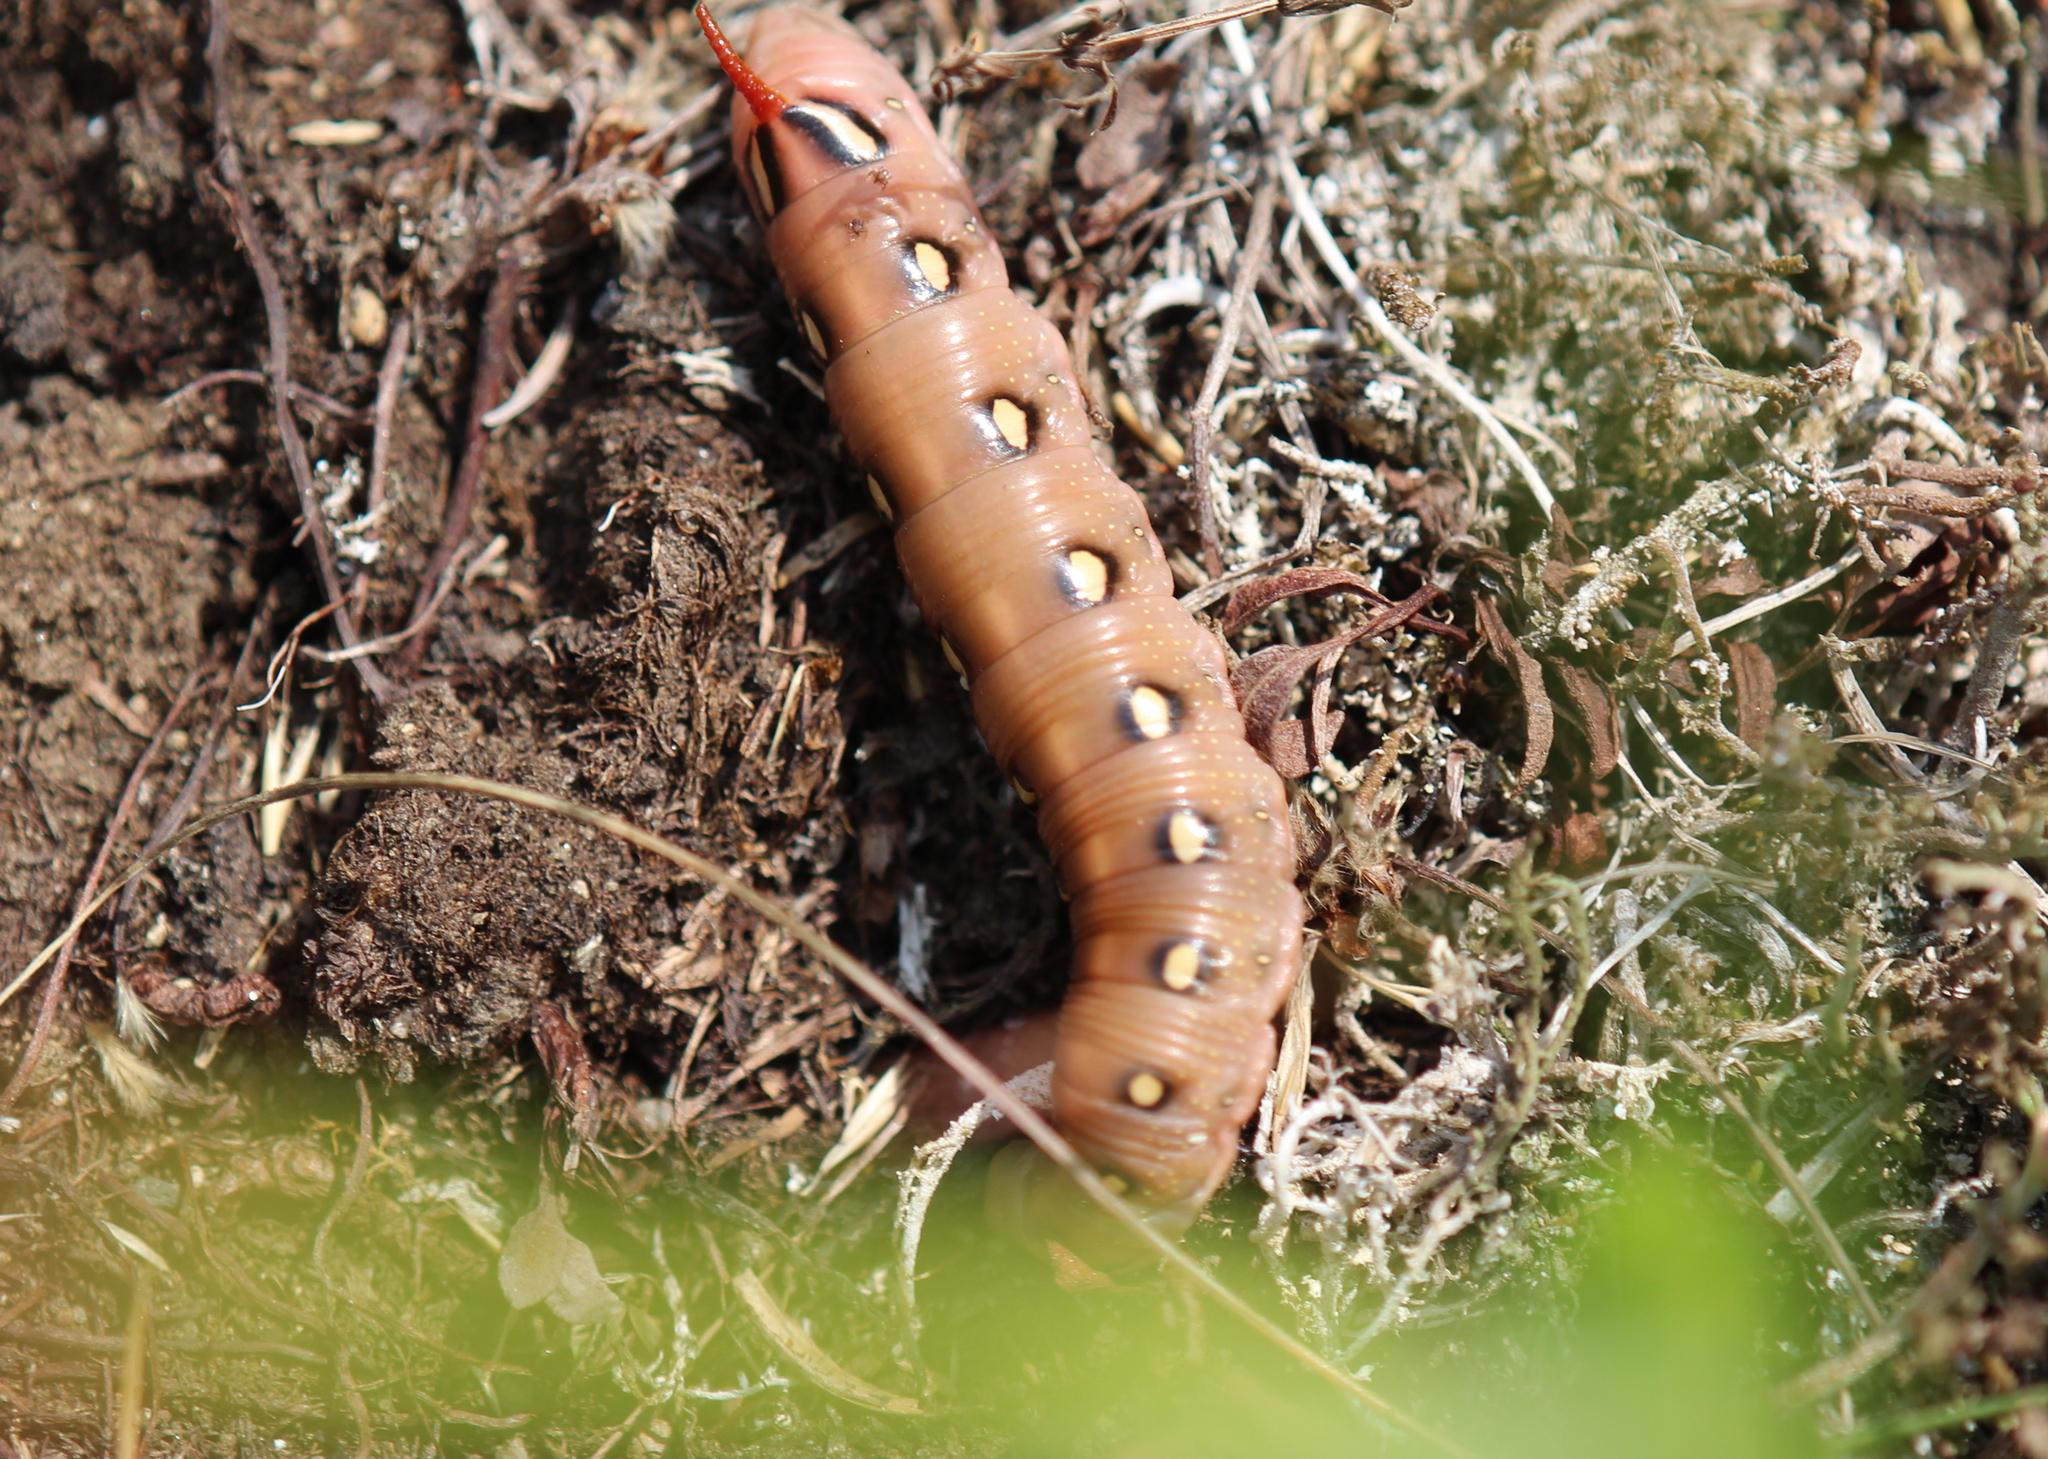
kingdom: Animalia
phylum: Arthropoda
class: Insecta
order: Lepidoptera
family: Sphingidae
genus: Hyles
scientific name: Hyles gallii
